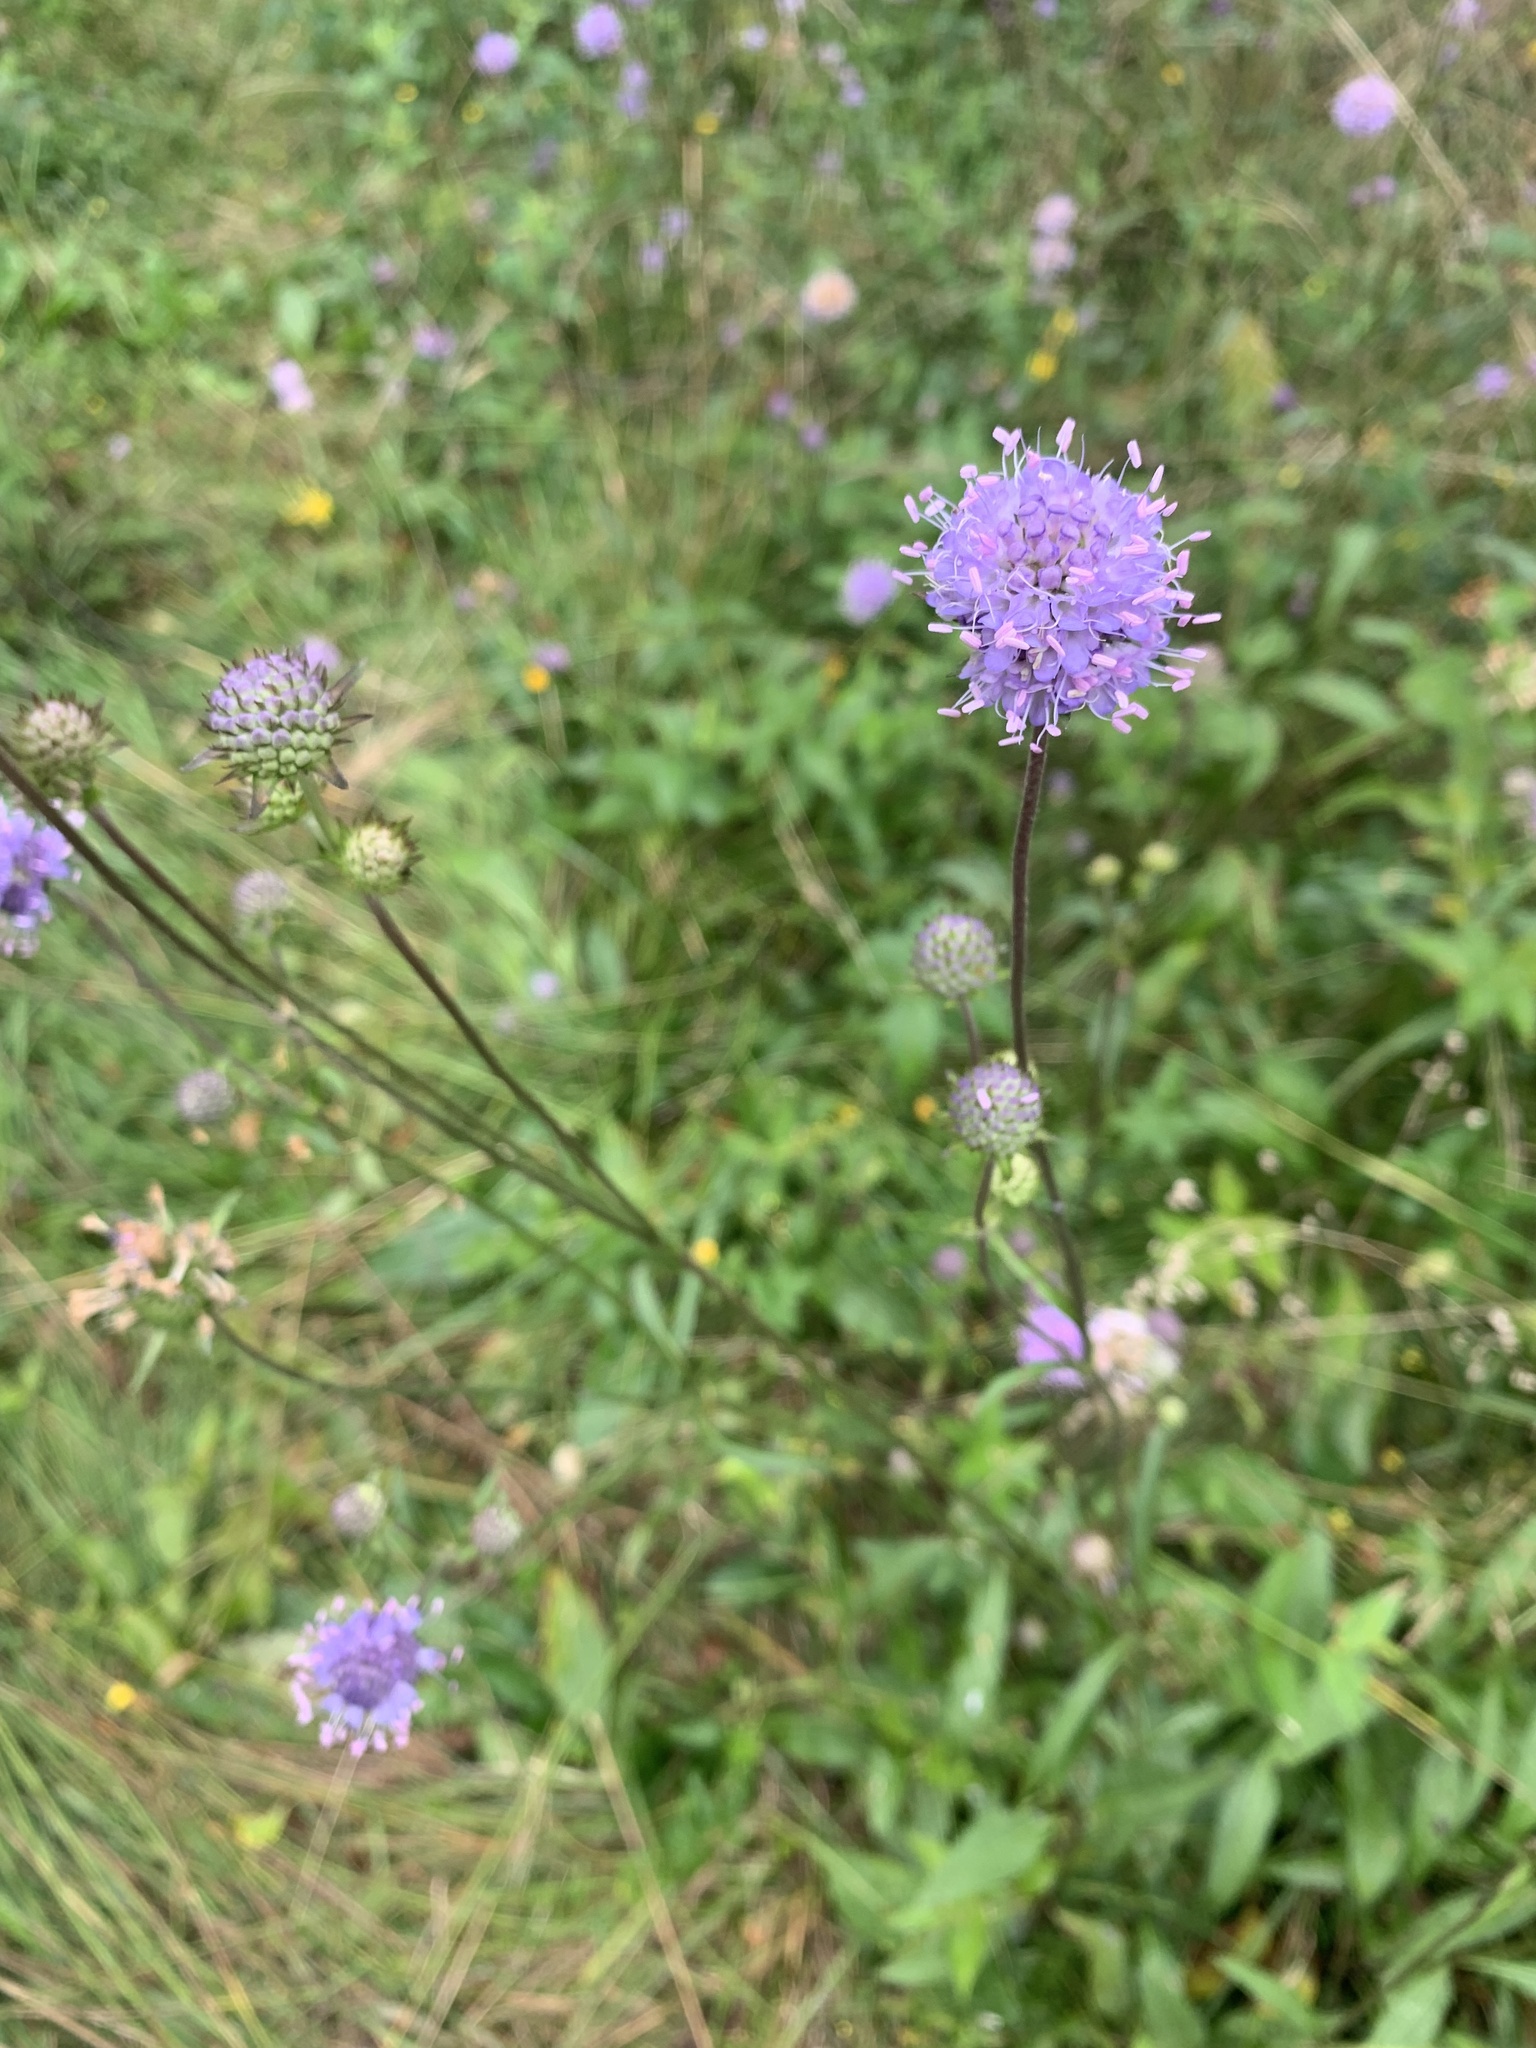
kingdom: Plantae
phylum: Tracheophyta
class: Magnoliopsida
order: Dipsacales
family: Caprifoliaceae
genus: Succisa
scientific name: Succisa pratensis
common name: Devil's-bit
